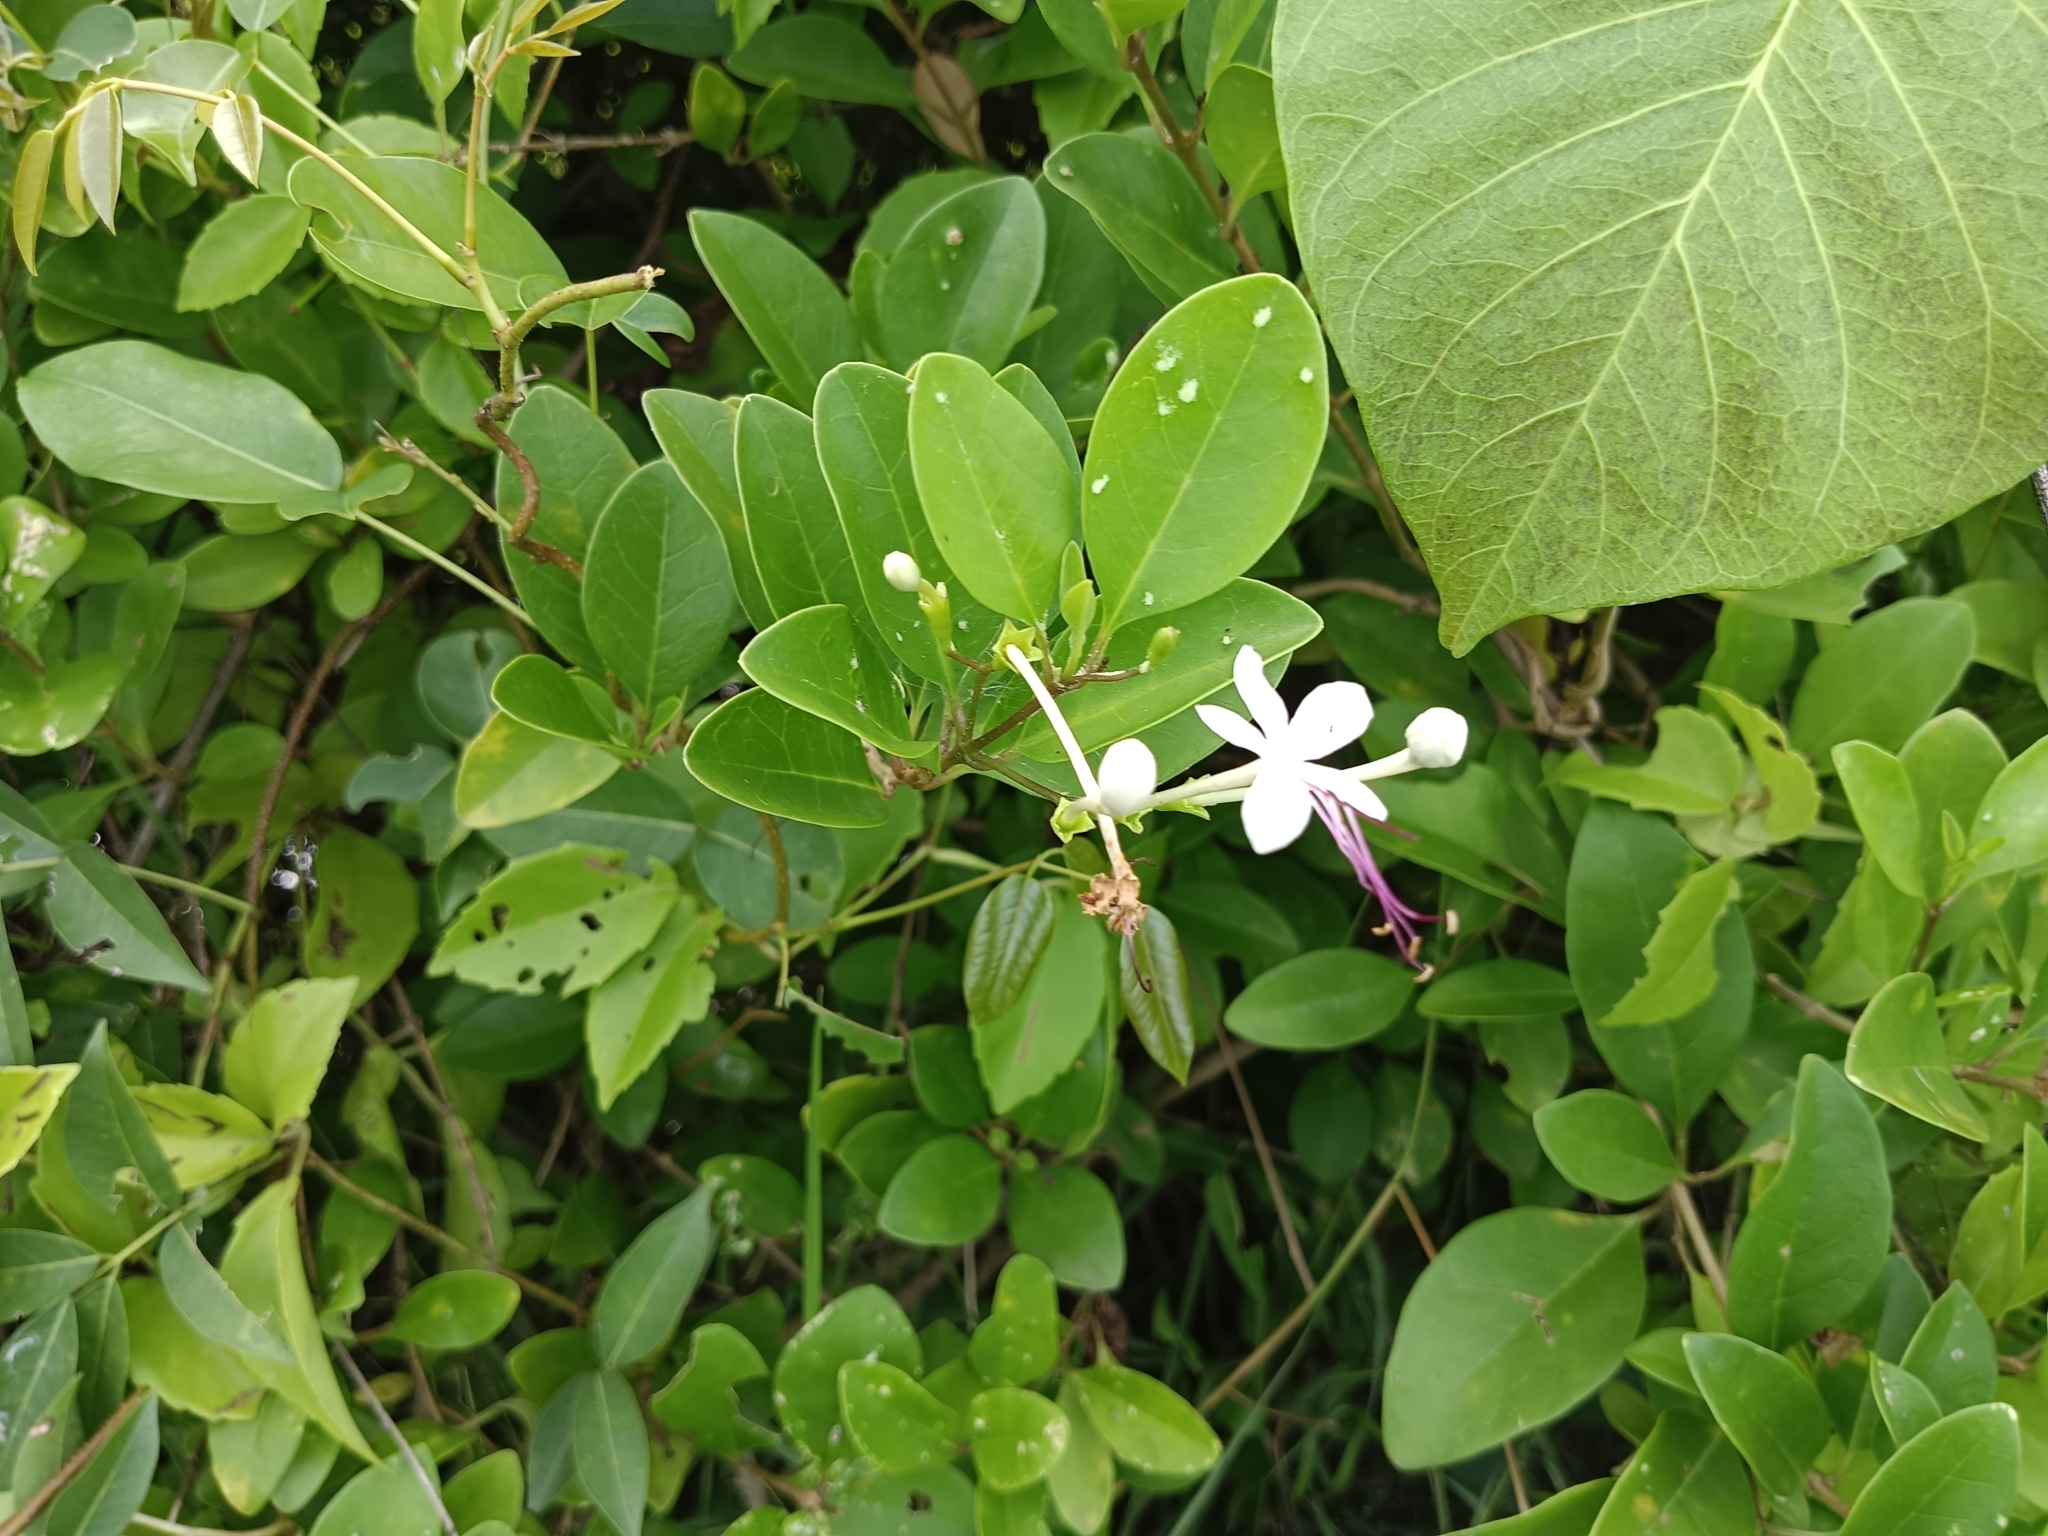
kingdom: Plantae
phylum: Tracheophyta
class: Magnoliopsida
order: Lamiales
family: Lamiaceae
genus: Volkameria
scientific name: Volkameria inermis
